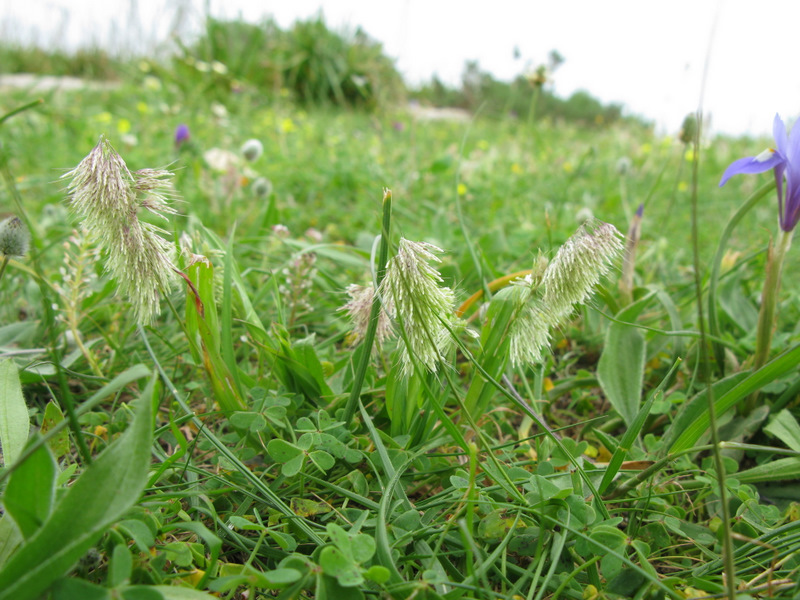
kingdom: Plantae
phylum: Tracheophyta
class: Liliopsida
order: Poales
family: Poaceae
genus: Lamarckia
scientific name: Lamarckia aurea
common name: Golden dog's-tail
